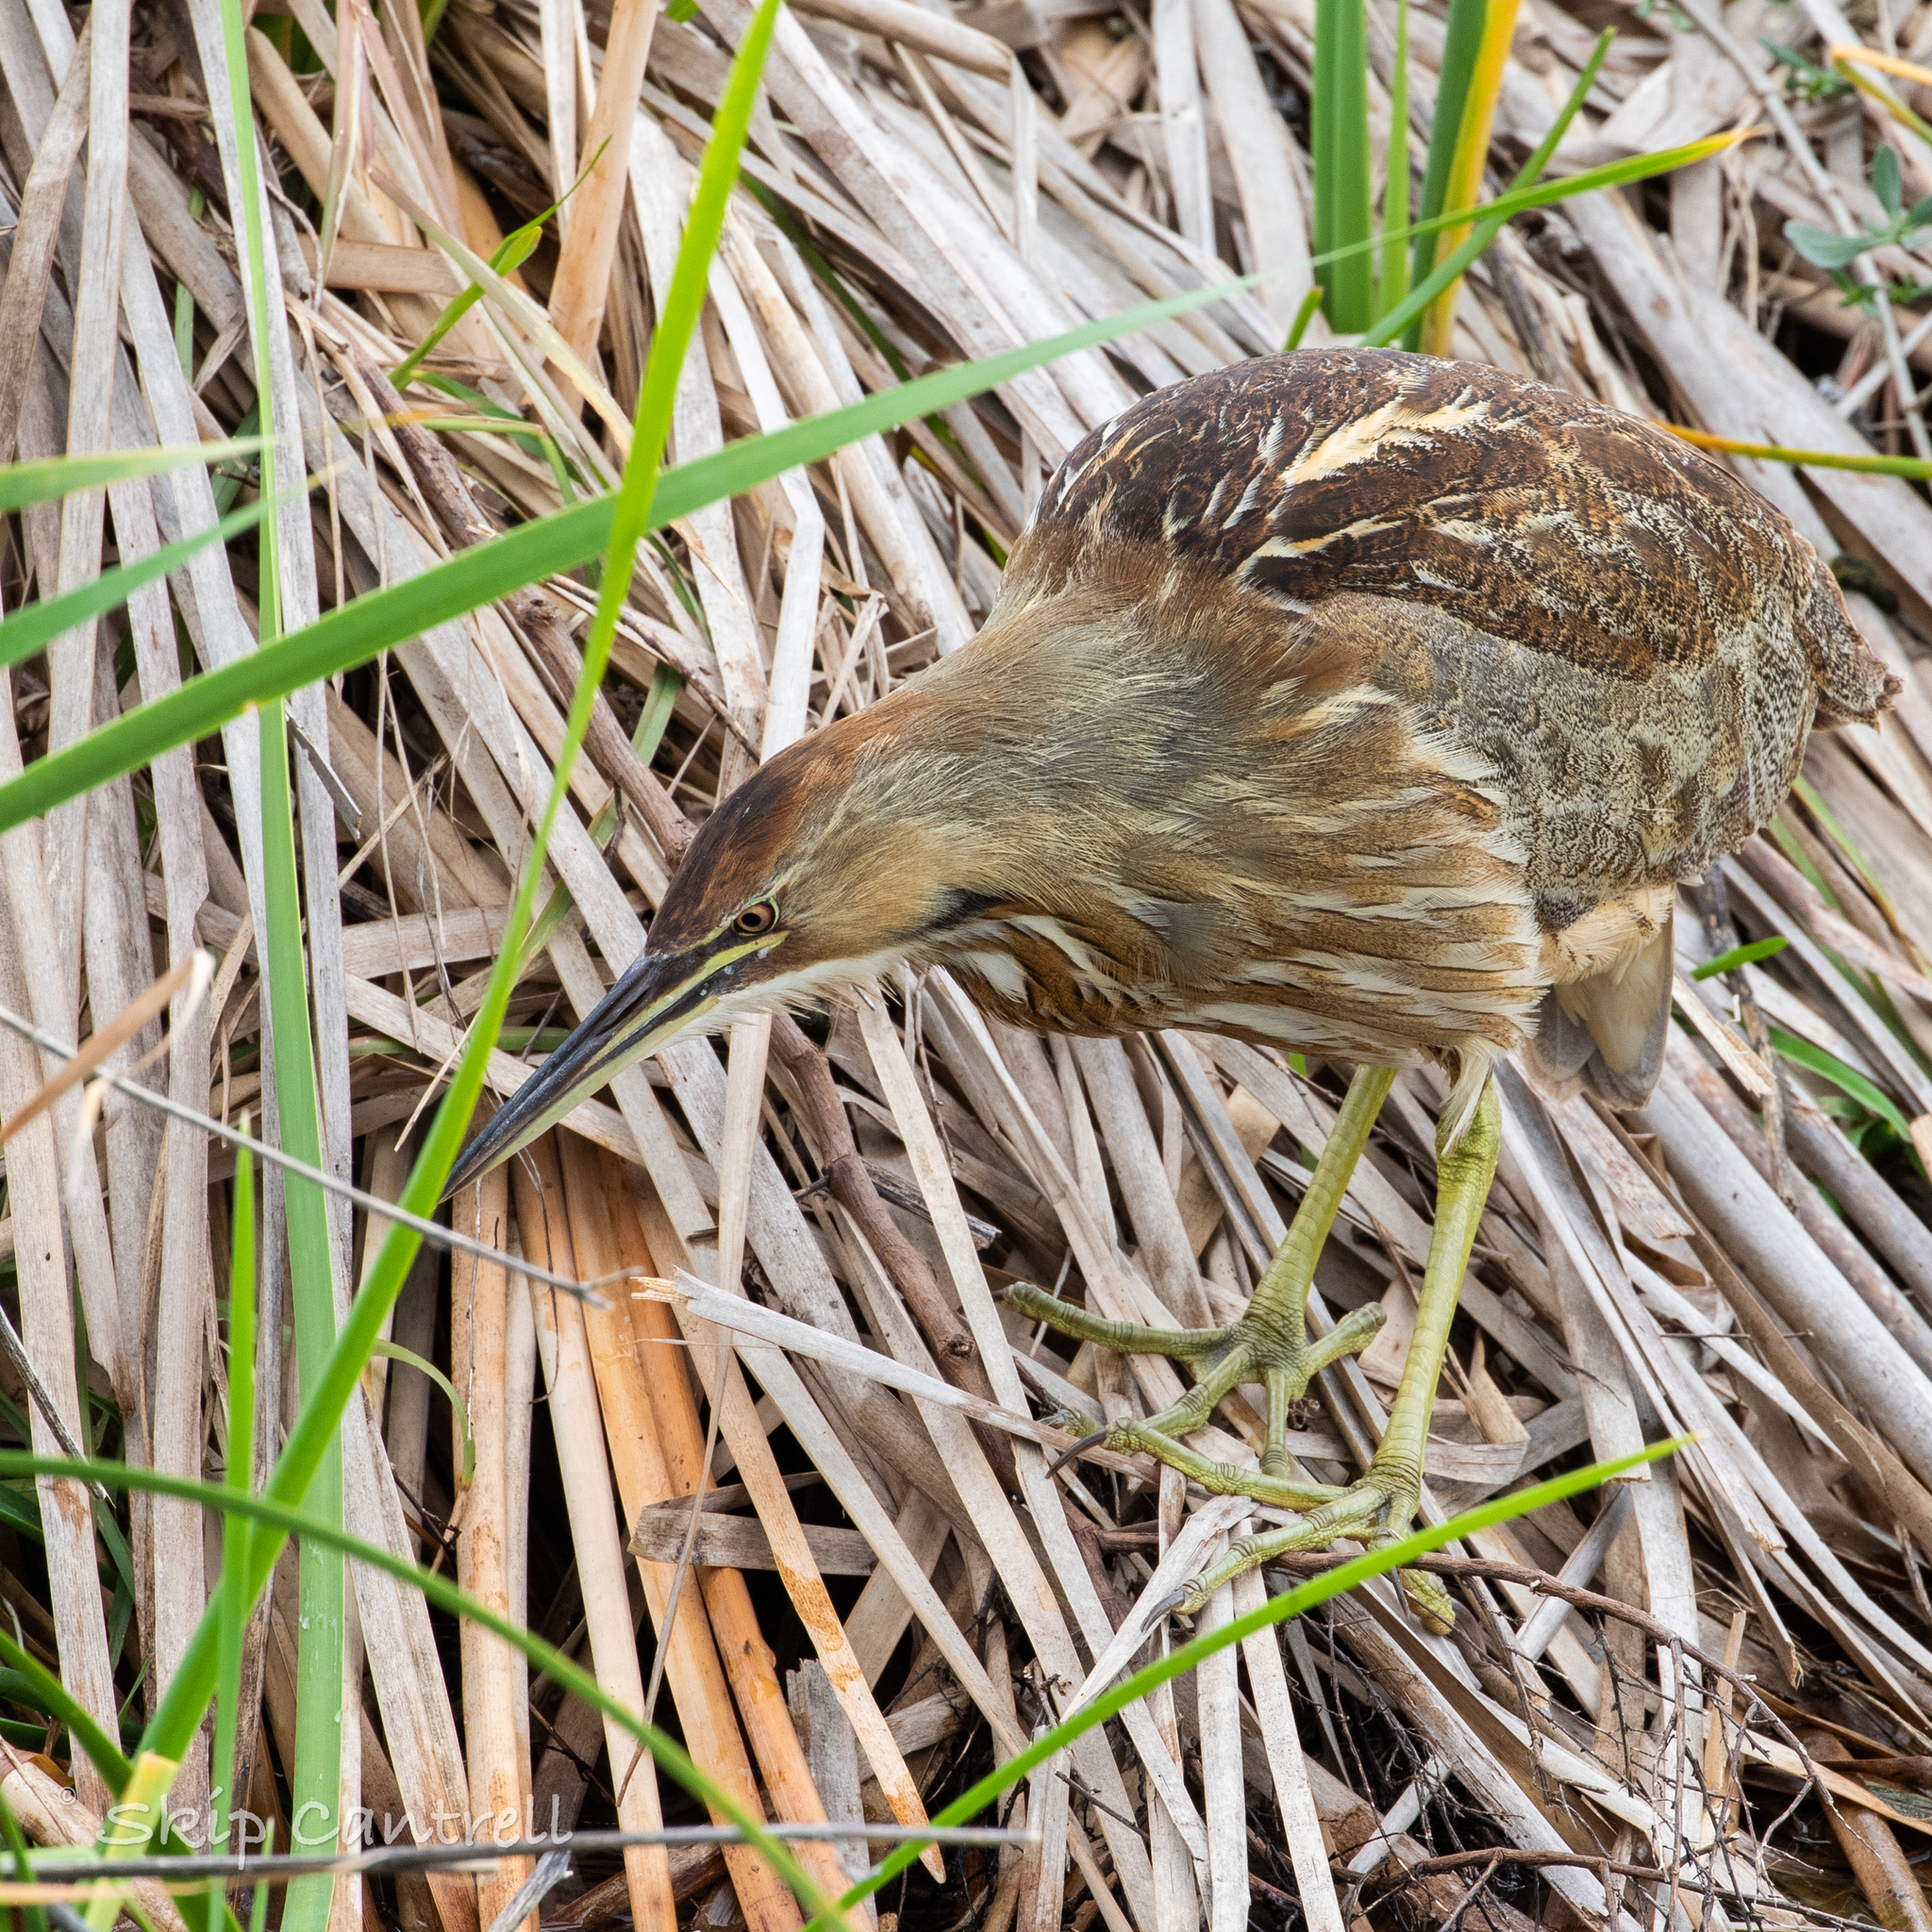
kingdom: Animalia
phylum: Chordata
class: Aves
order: Pelecaniformes
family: Ardeidae
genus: Botaurus
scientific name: Botaurus lentiginosus
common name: American bittern
